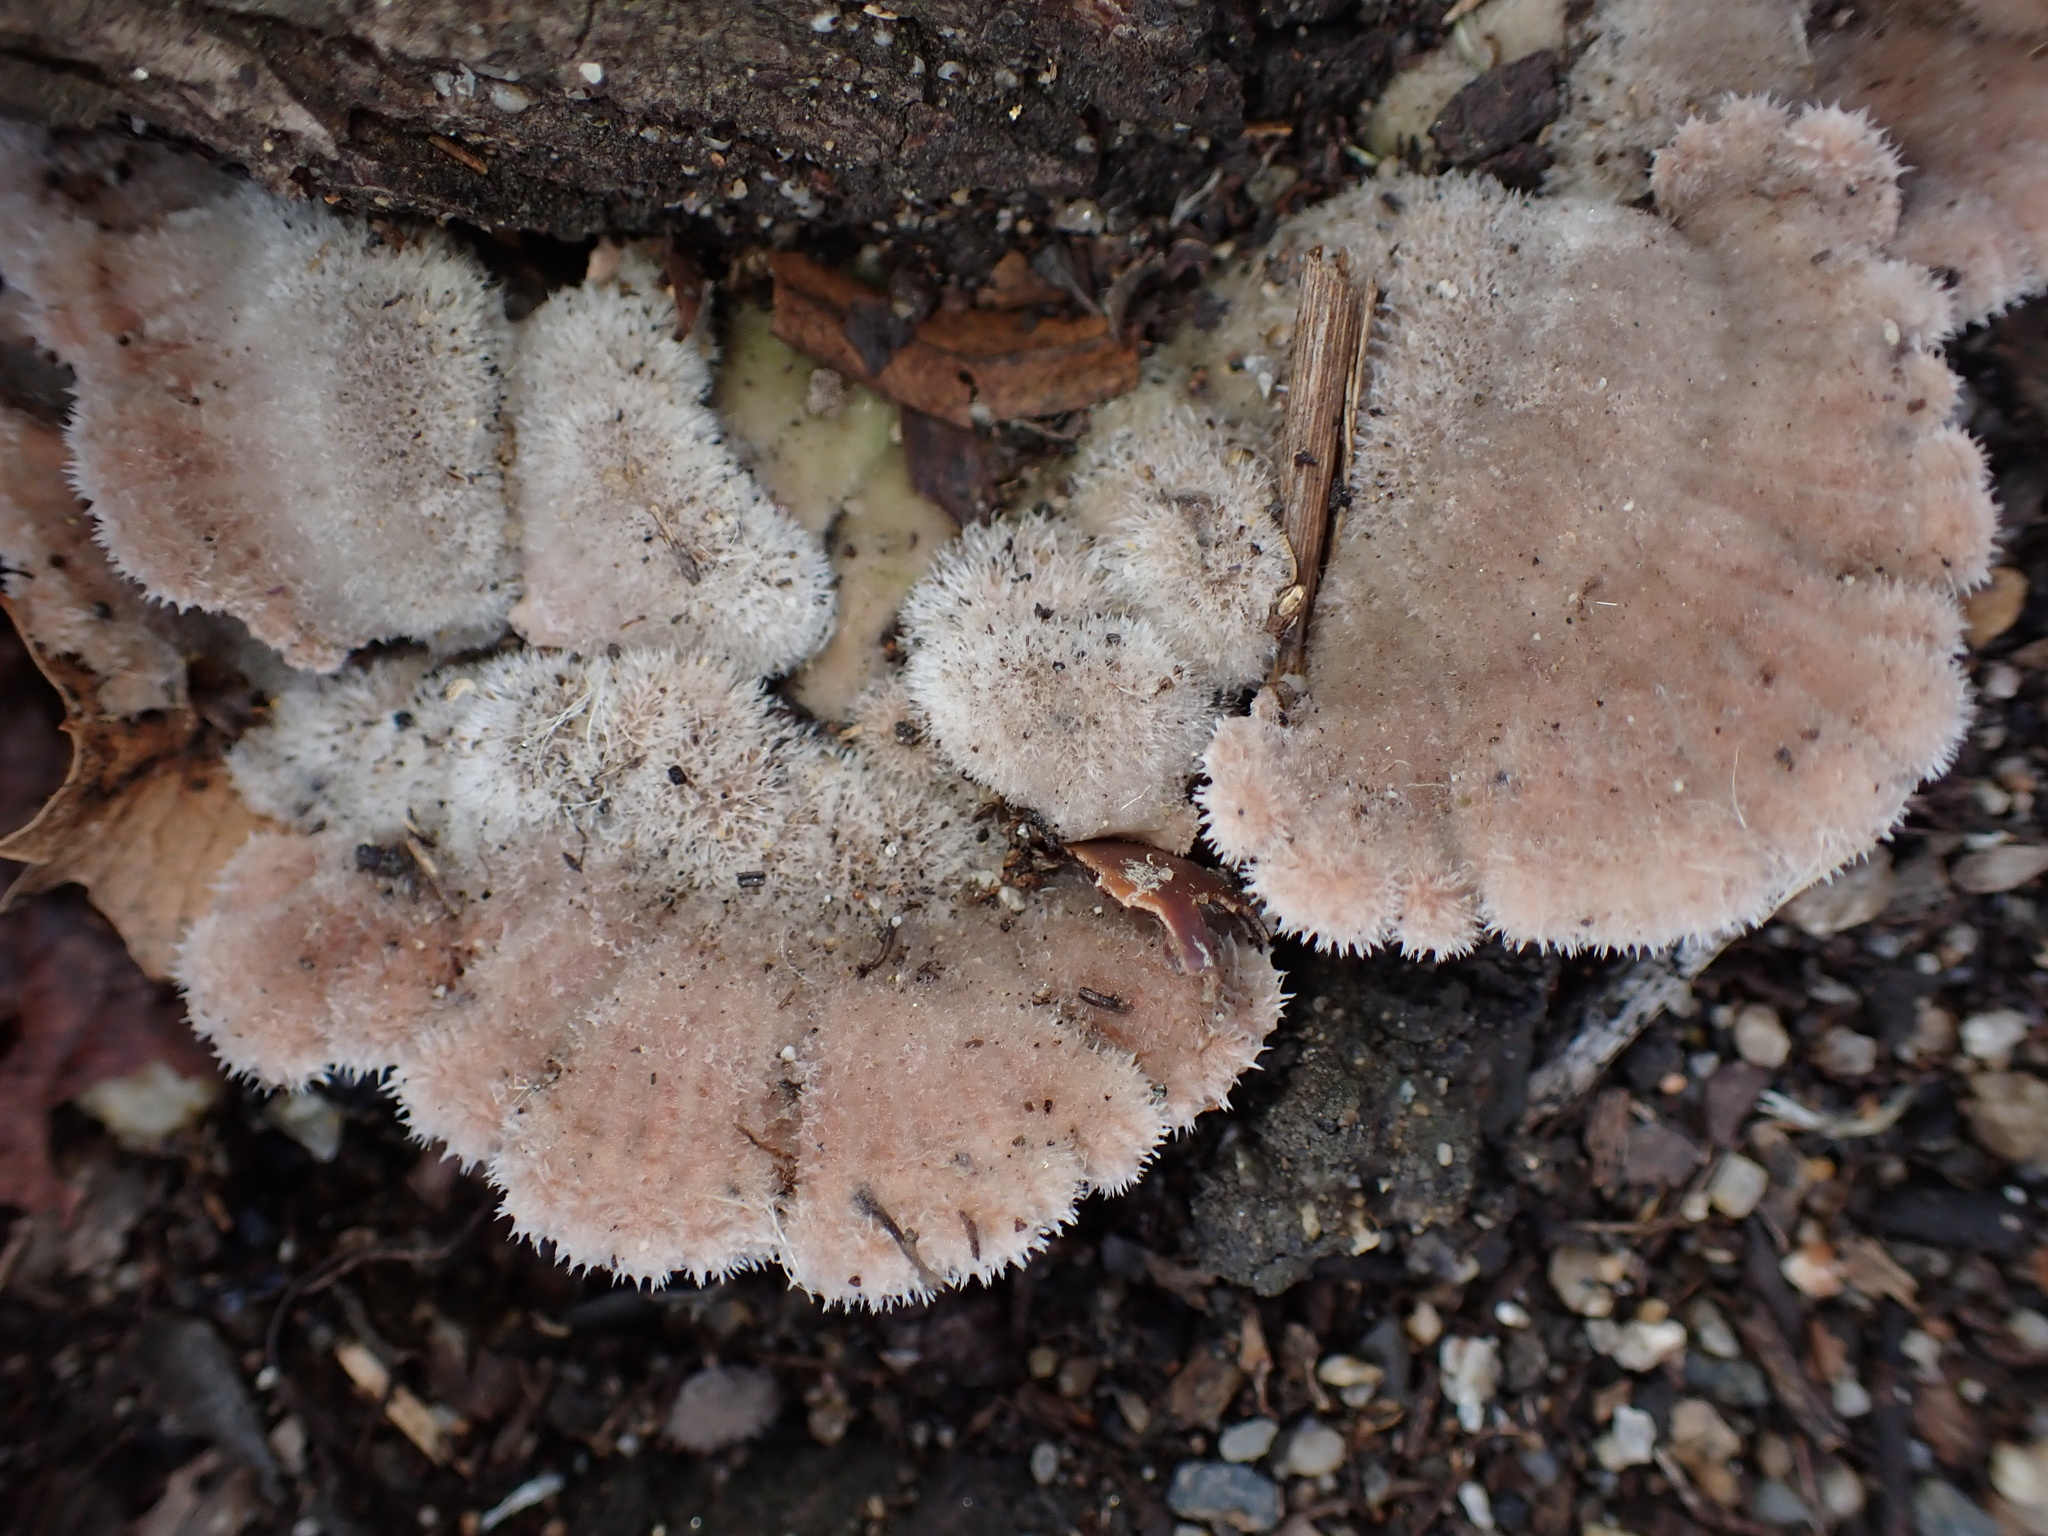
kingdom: Fungi
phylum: Basidiomycota
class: Agaricomycetes
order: Agaricales
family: Schizophyllaceae
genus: Schizophyllum
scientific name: Schizophyllum commune
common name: Common porecrust
